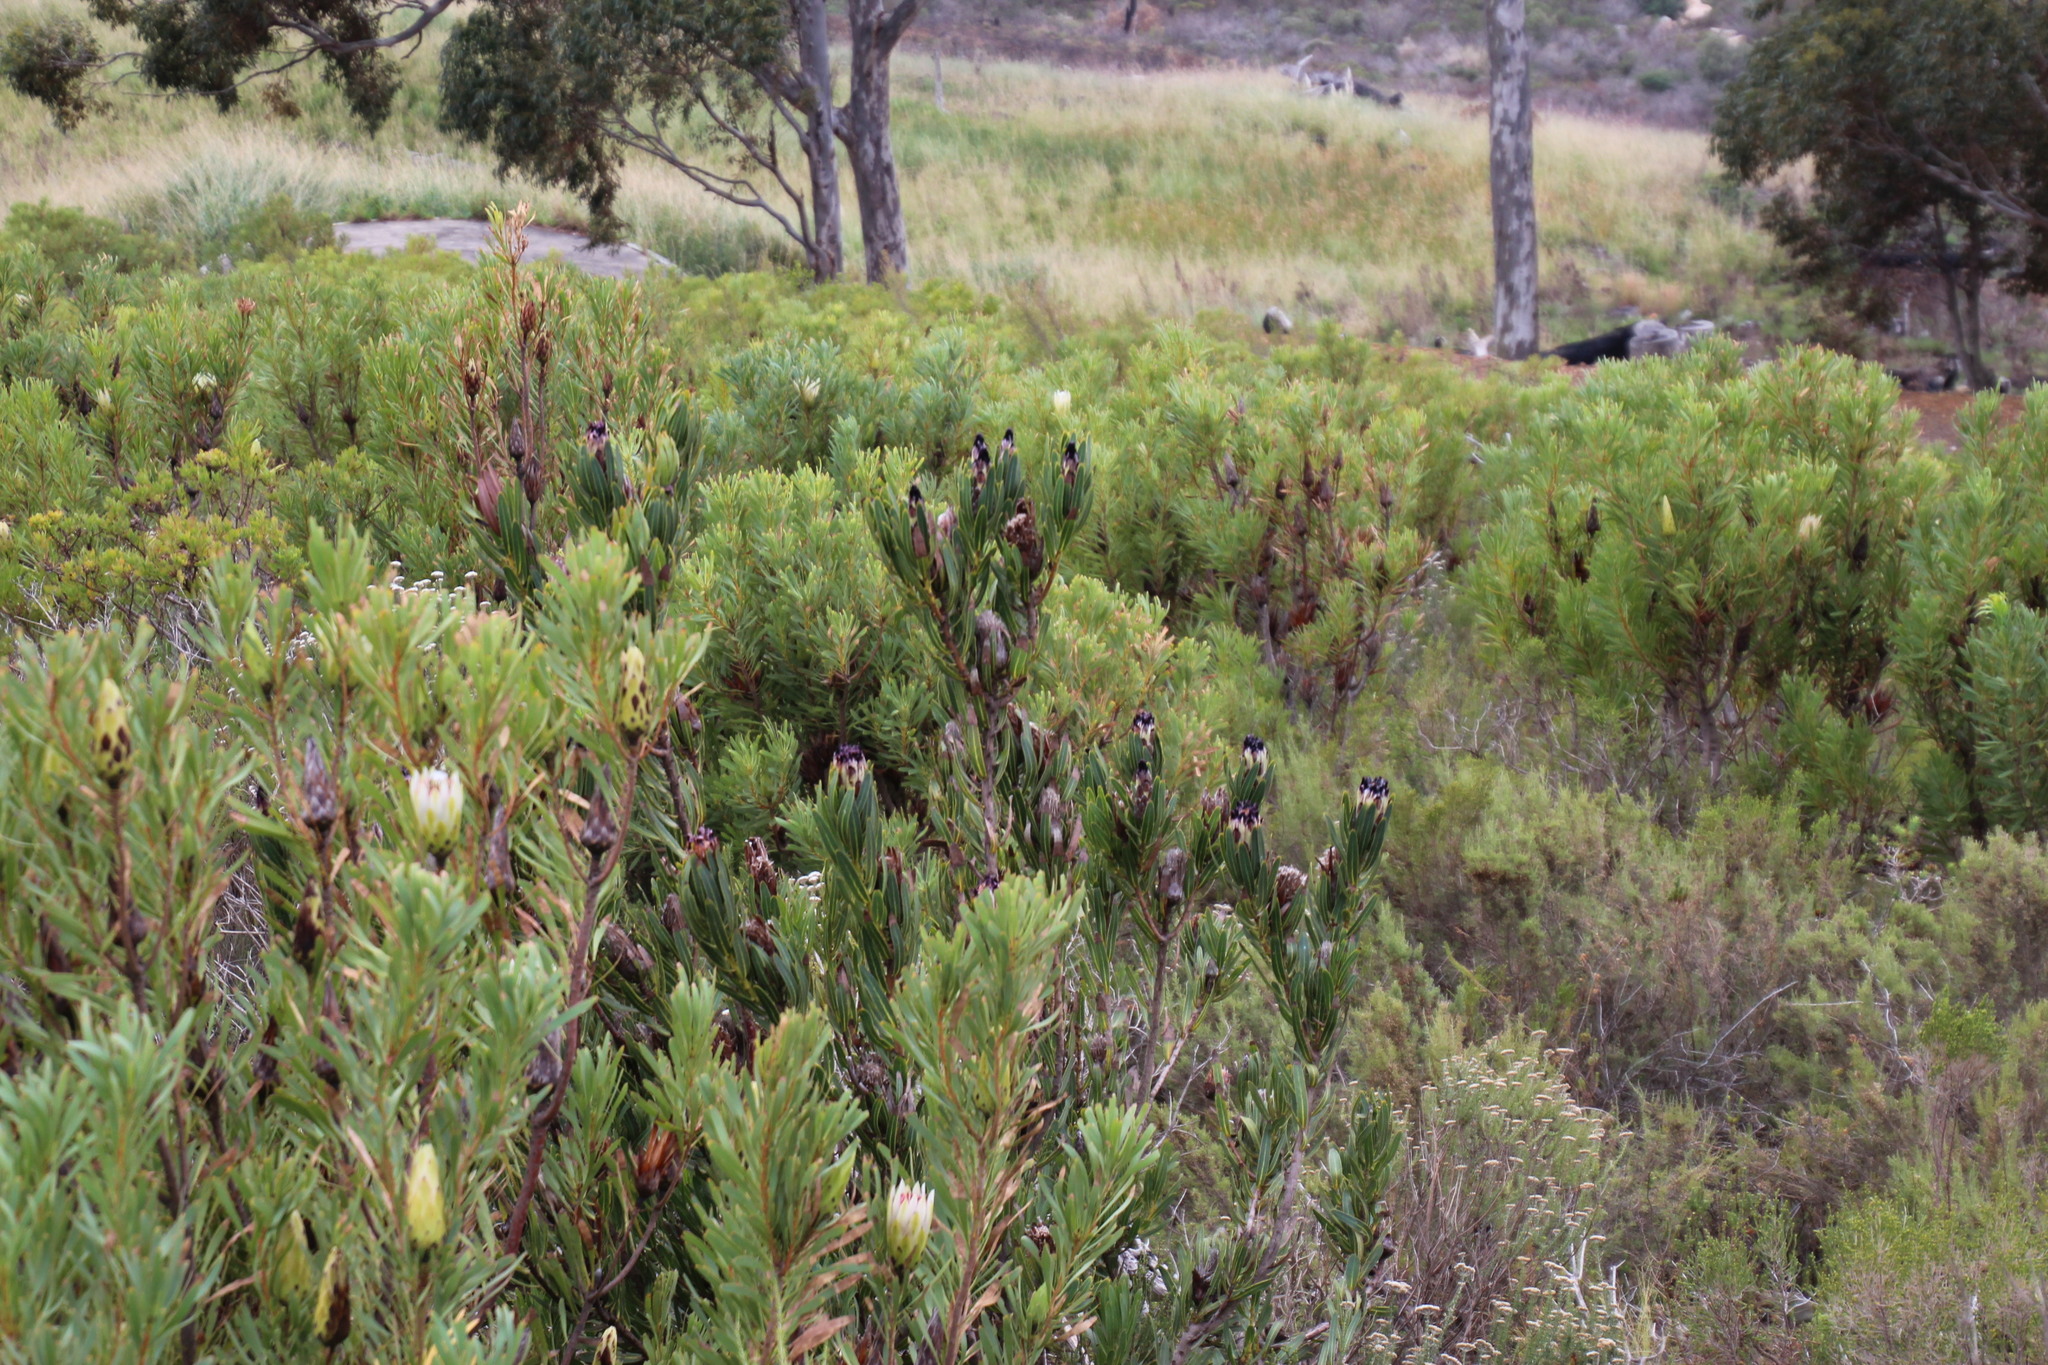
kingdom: Plantae
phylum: Tracheophyta
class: Magnoliopsida
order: Proteales
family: Proteaceae
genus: Protea
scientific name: Protea
